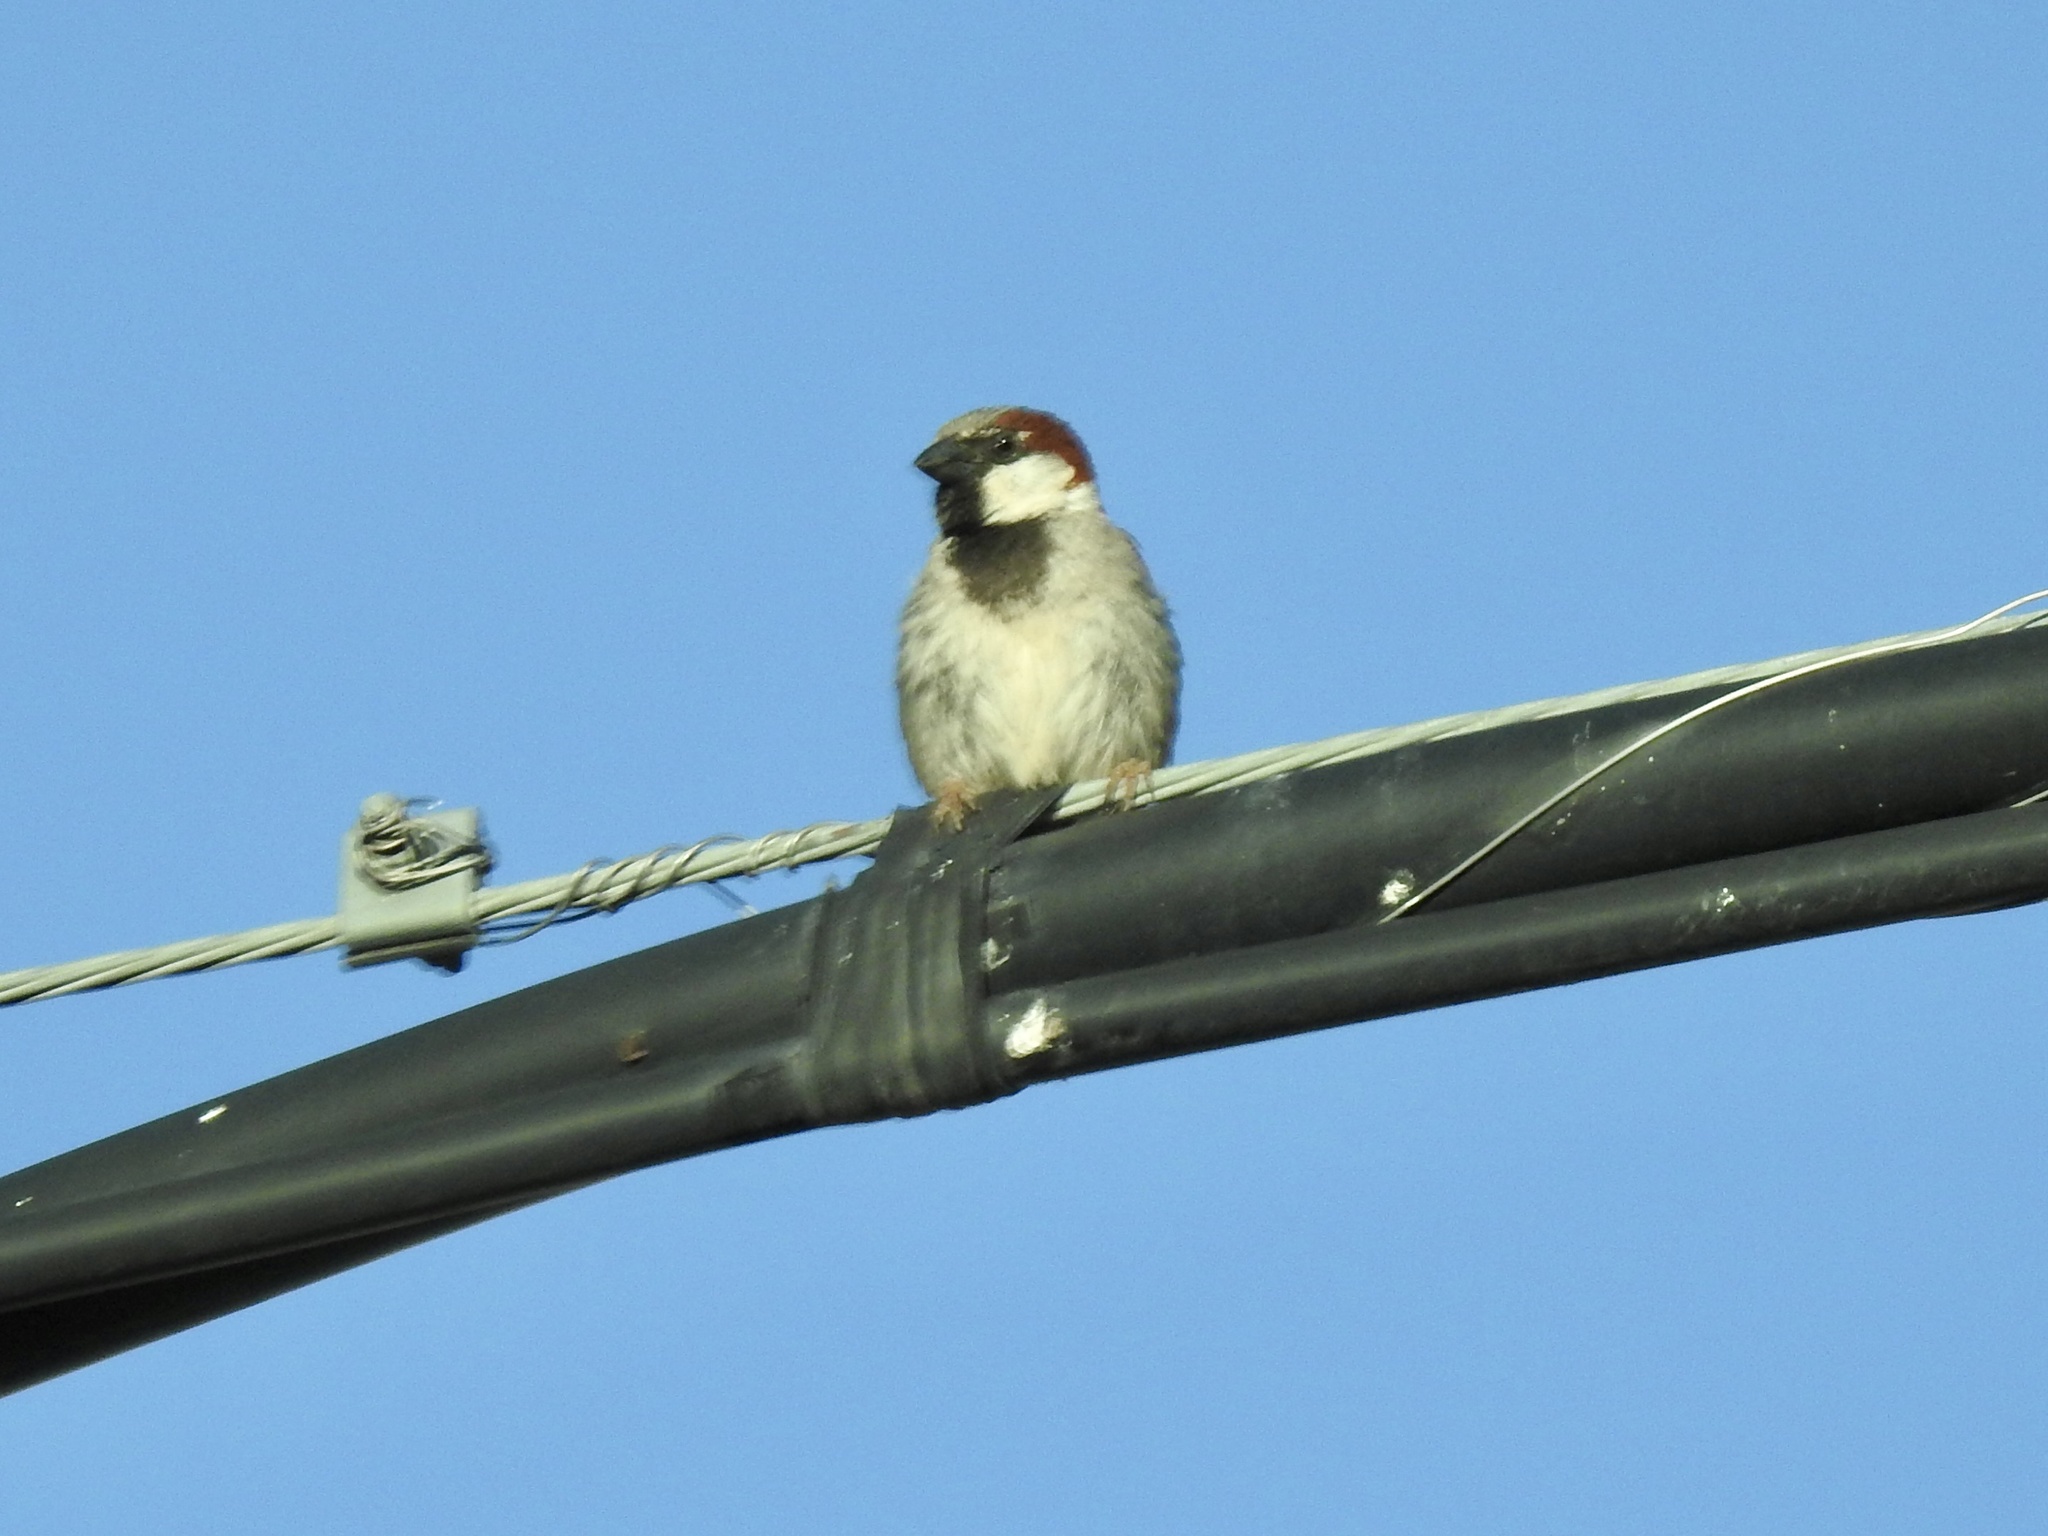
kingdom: Animalia
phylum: Chordata
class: Aves
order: Passeriformes
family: Passeridae
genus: Passer
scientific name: Passer domesticus
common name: House sparrow
